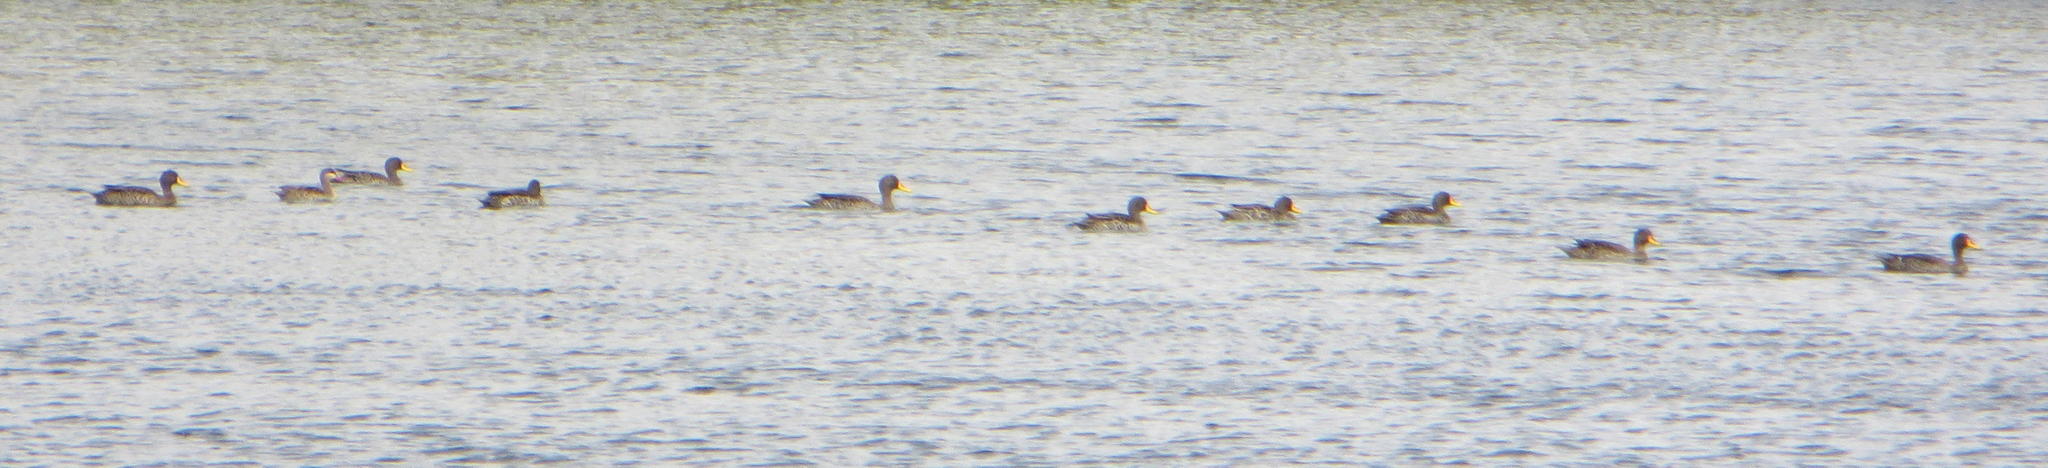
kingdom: Animalia
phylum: Chordata
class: Aves
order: Anseriformes
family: Anatidae
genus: Anas
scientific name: Anas undulata
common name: Yellow-billed duck
